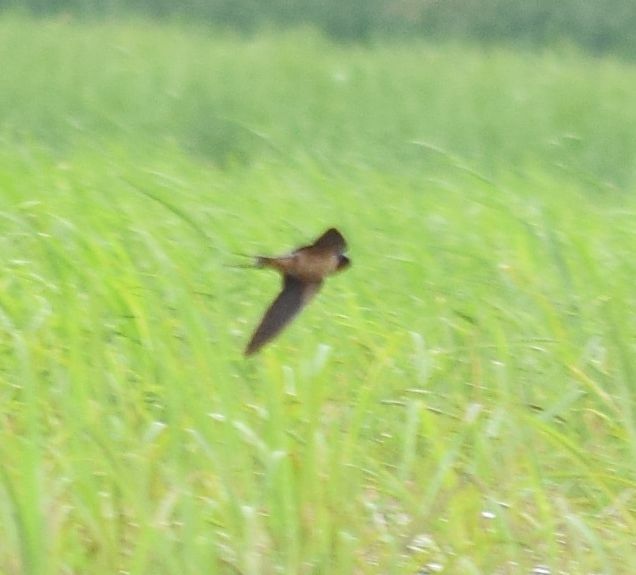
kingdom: Animalia
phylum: Chordata
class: Aves
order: Passeriformes
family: Hirundinidae
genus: Hirundo
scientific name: Hirundo rustica
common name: Barn swallow
